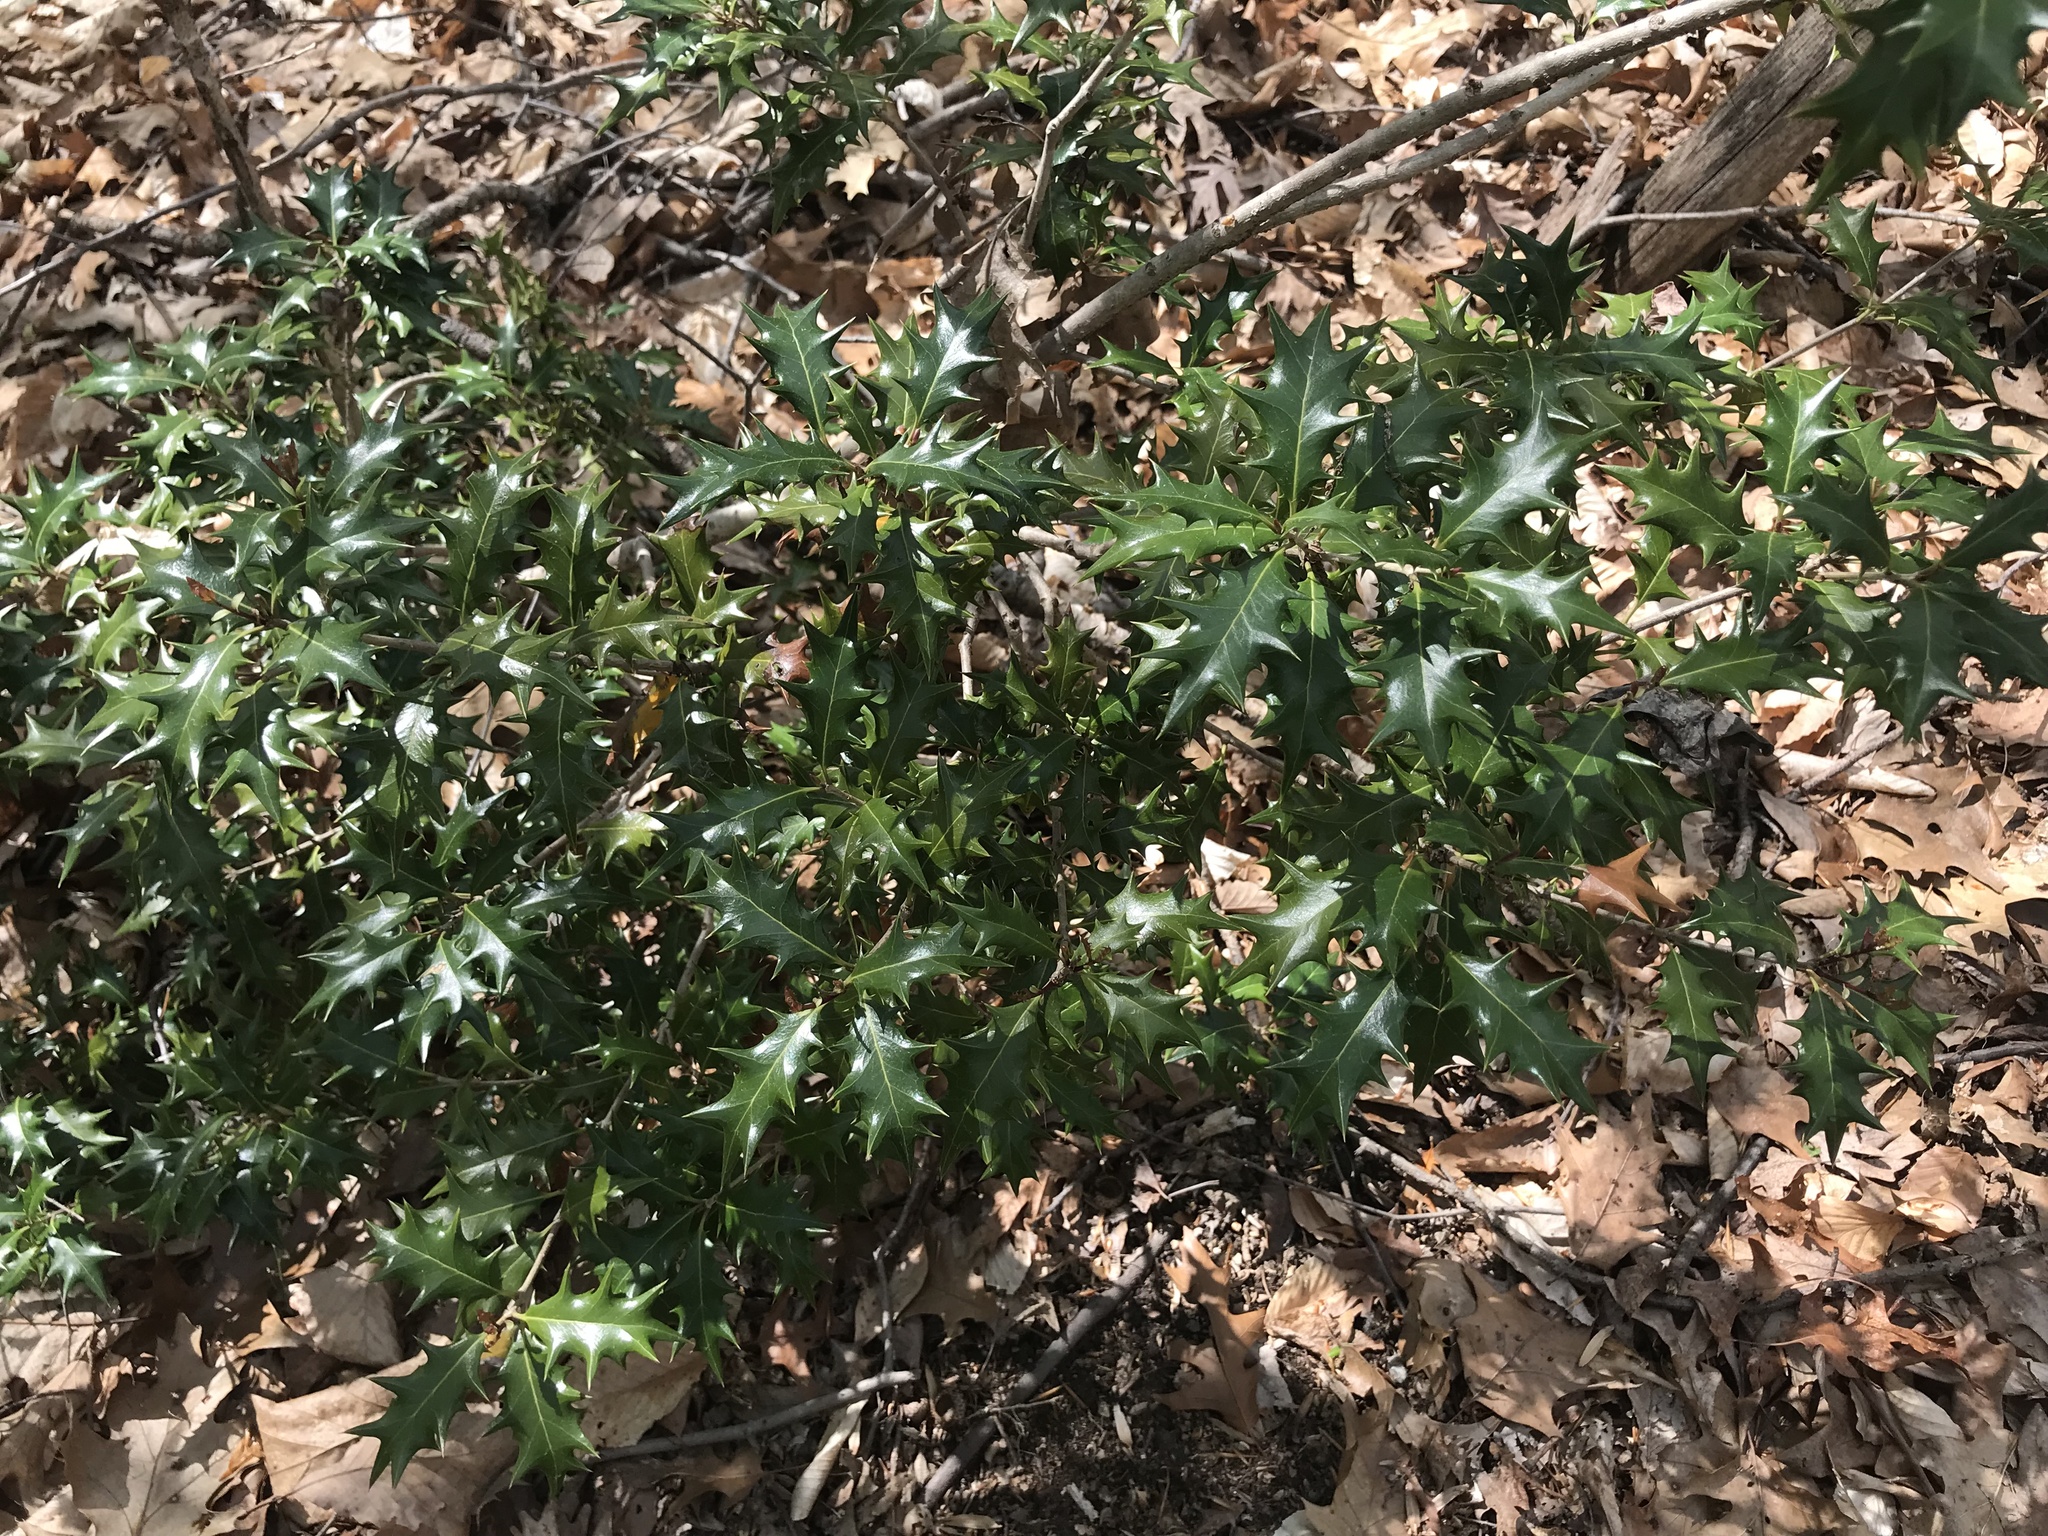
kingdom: Plantae
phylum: Tracheophyta
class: Magnoliopsida
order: Lamiales
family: Oleaceae
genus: Osmanthus
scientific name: Osmanthus heterophyllus
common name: Holly osmanthus
